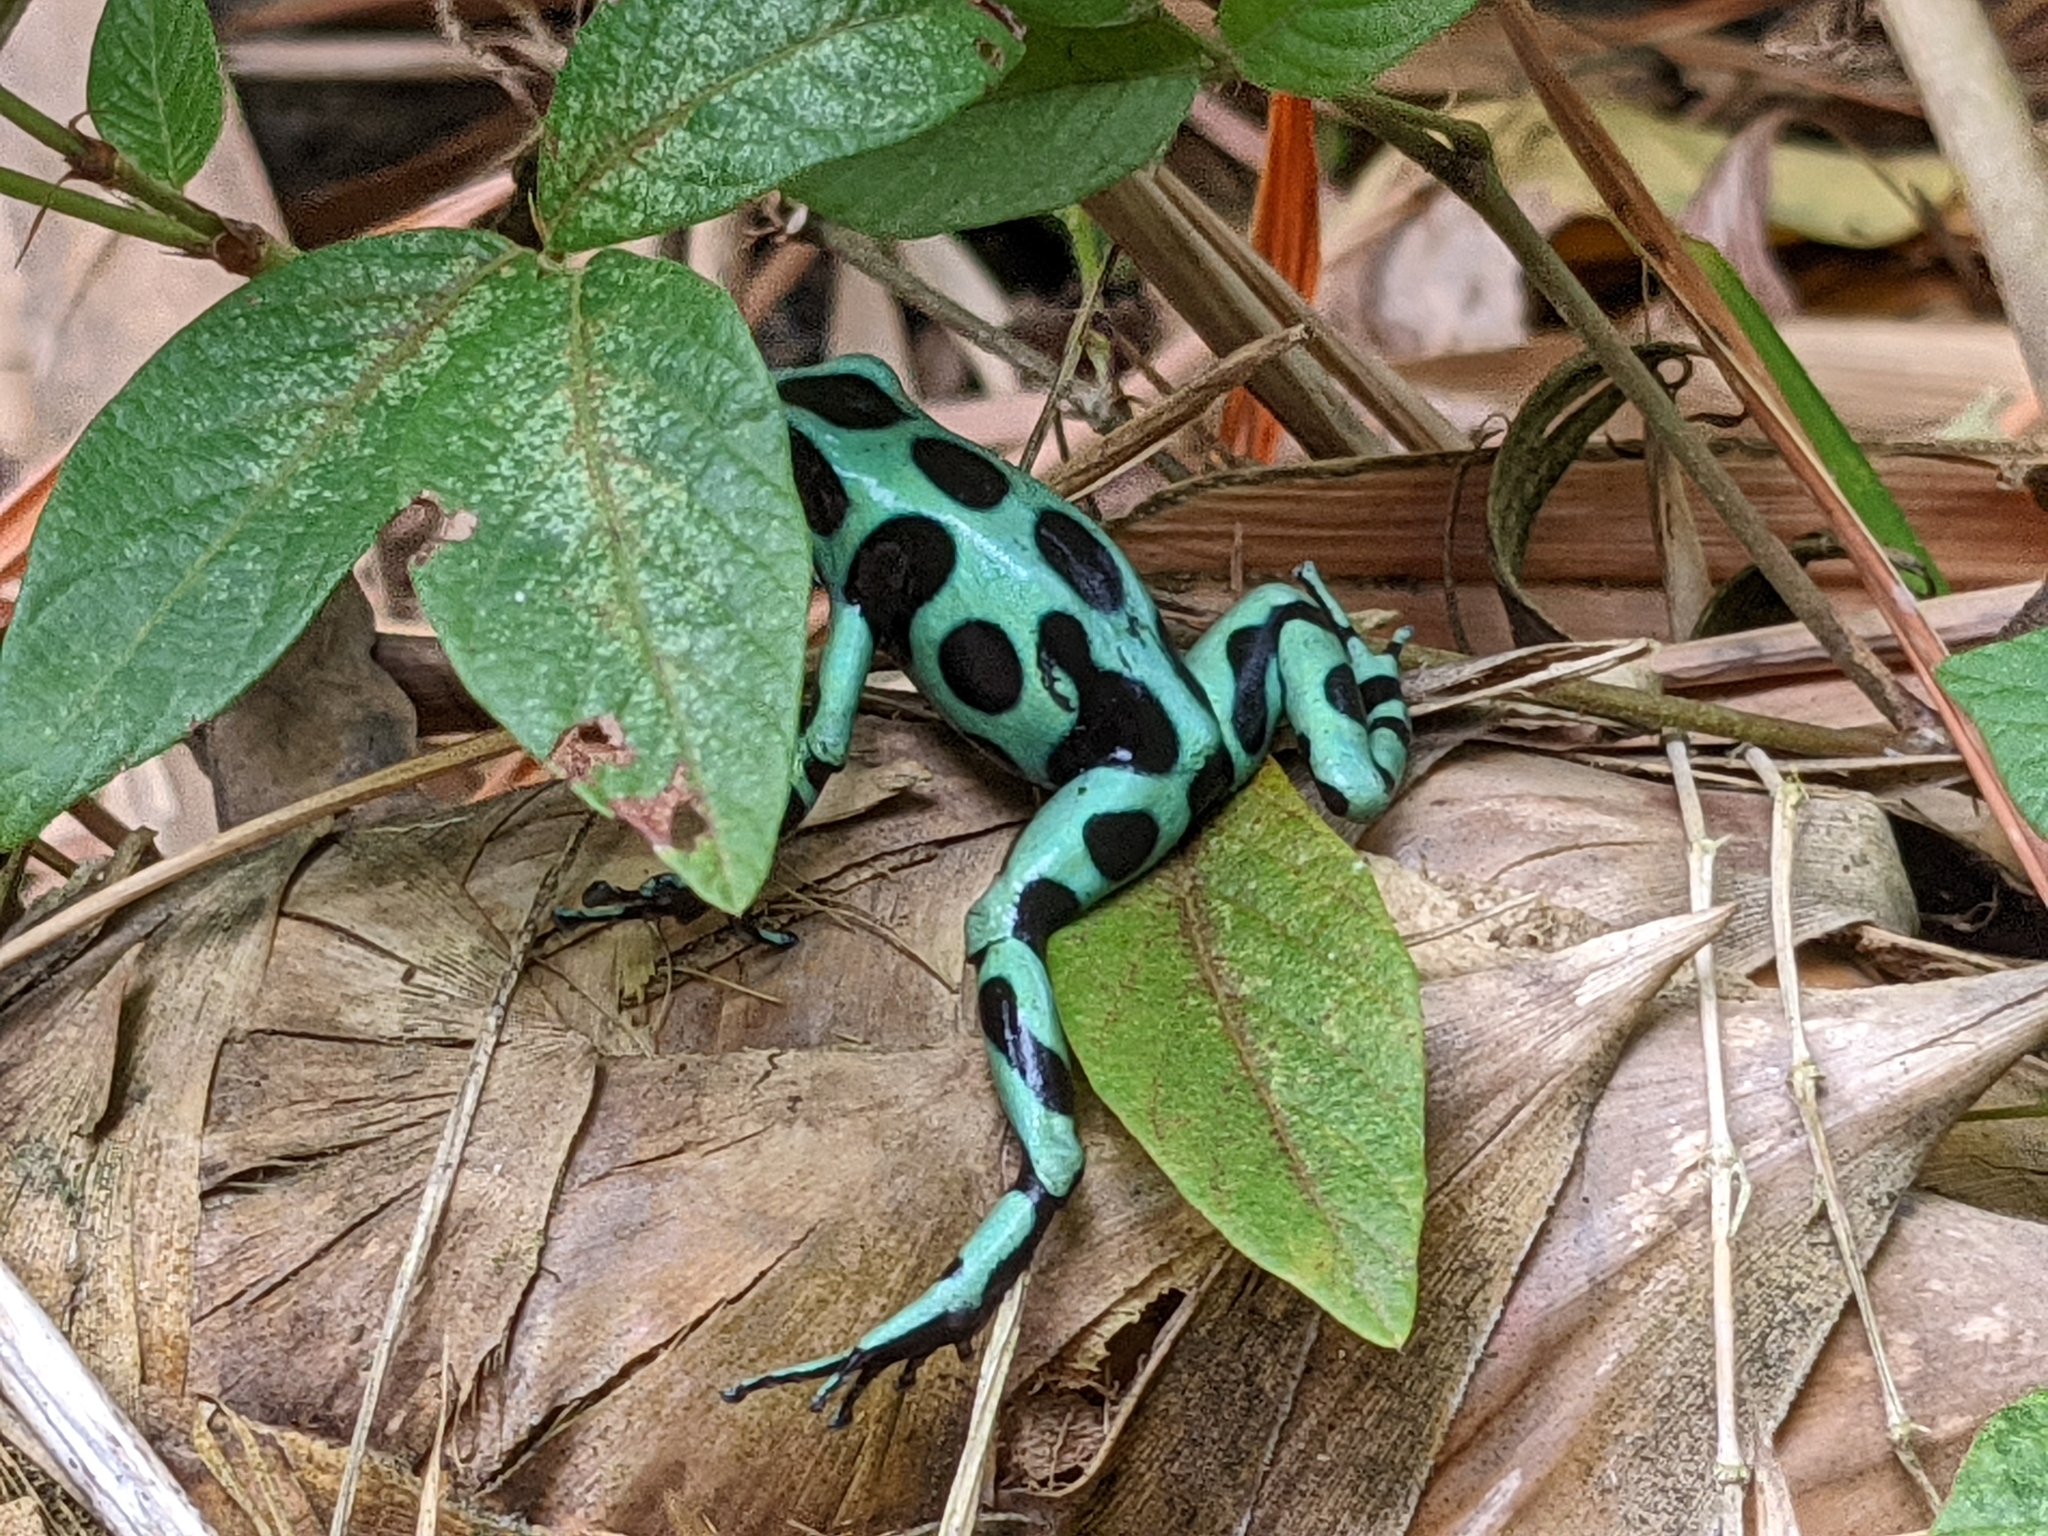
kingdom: Animalia
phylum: Chordata
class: Amphibia
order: Anura
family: Dendrobatidae
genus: Dendrobates
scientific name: Dendrobates auratus
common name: Green and black poison dart frog
